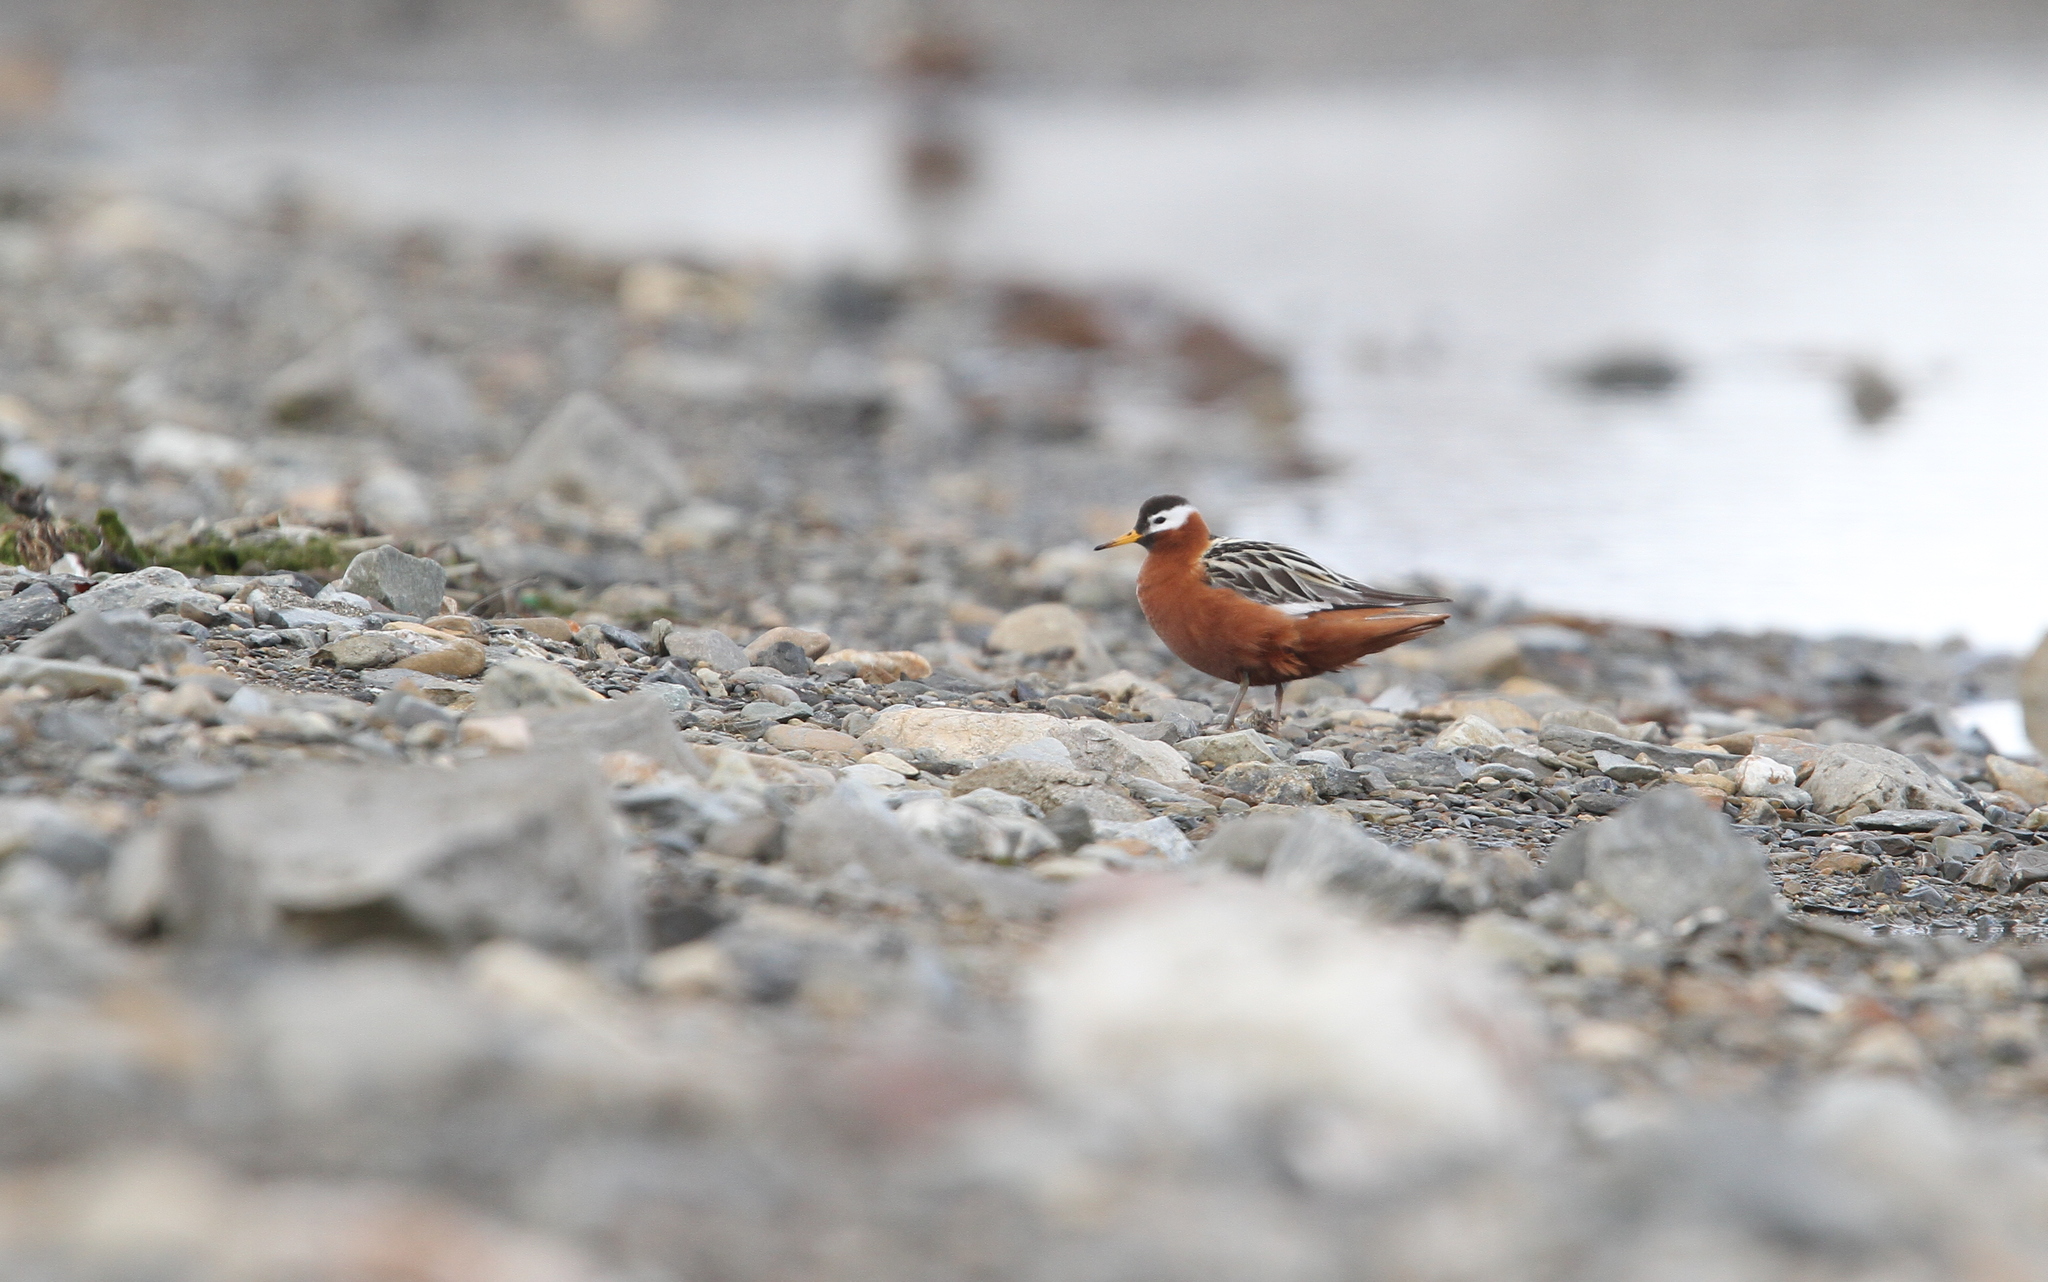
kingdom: Animalia
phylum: Chordata
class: Aves
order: Charadriiformes
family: Scolopacidae
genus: Phalaropus
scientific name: Phalaropus fulicarius
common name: Red phalarope
